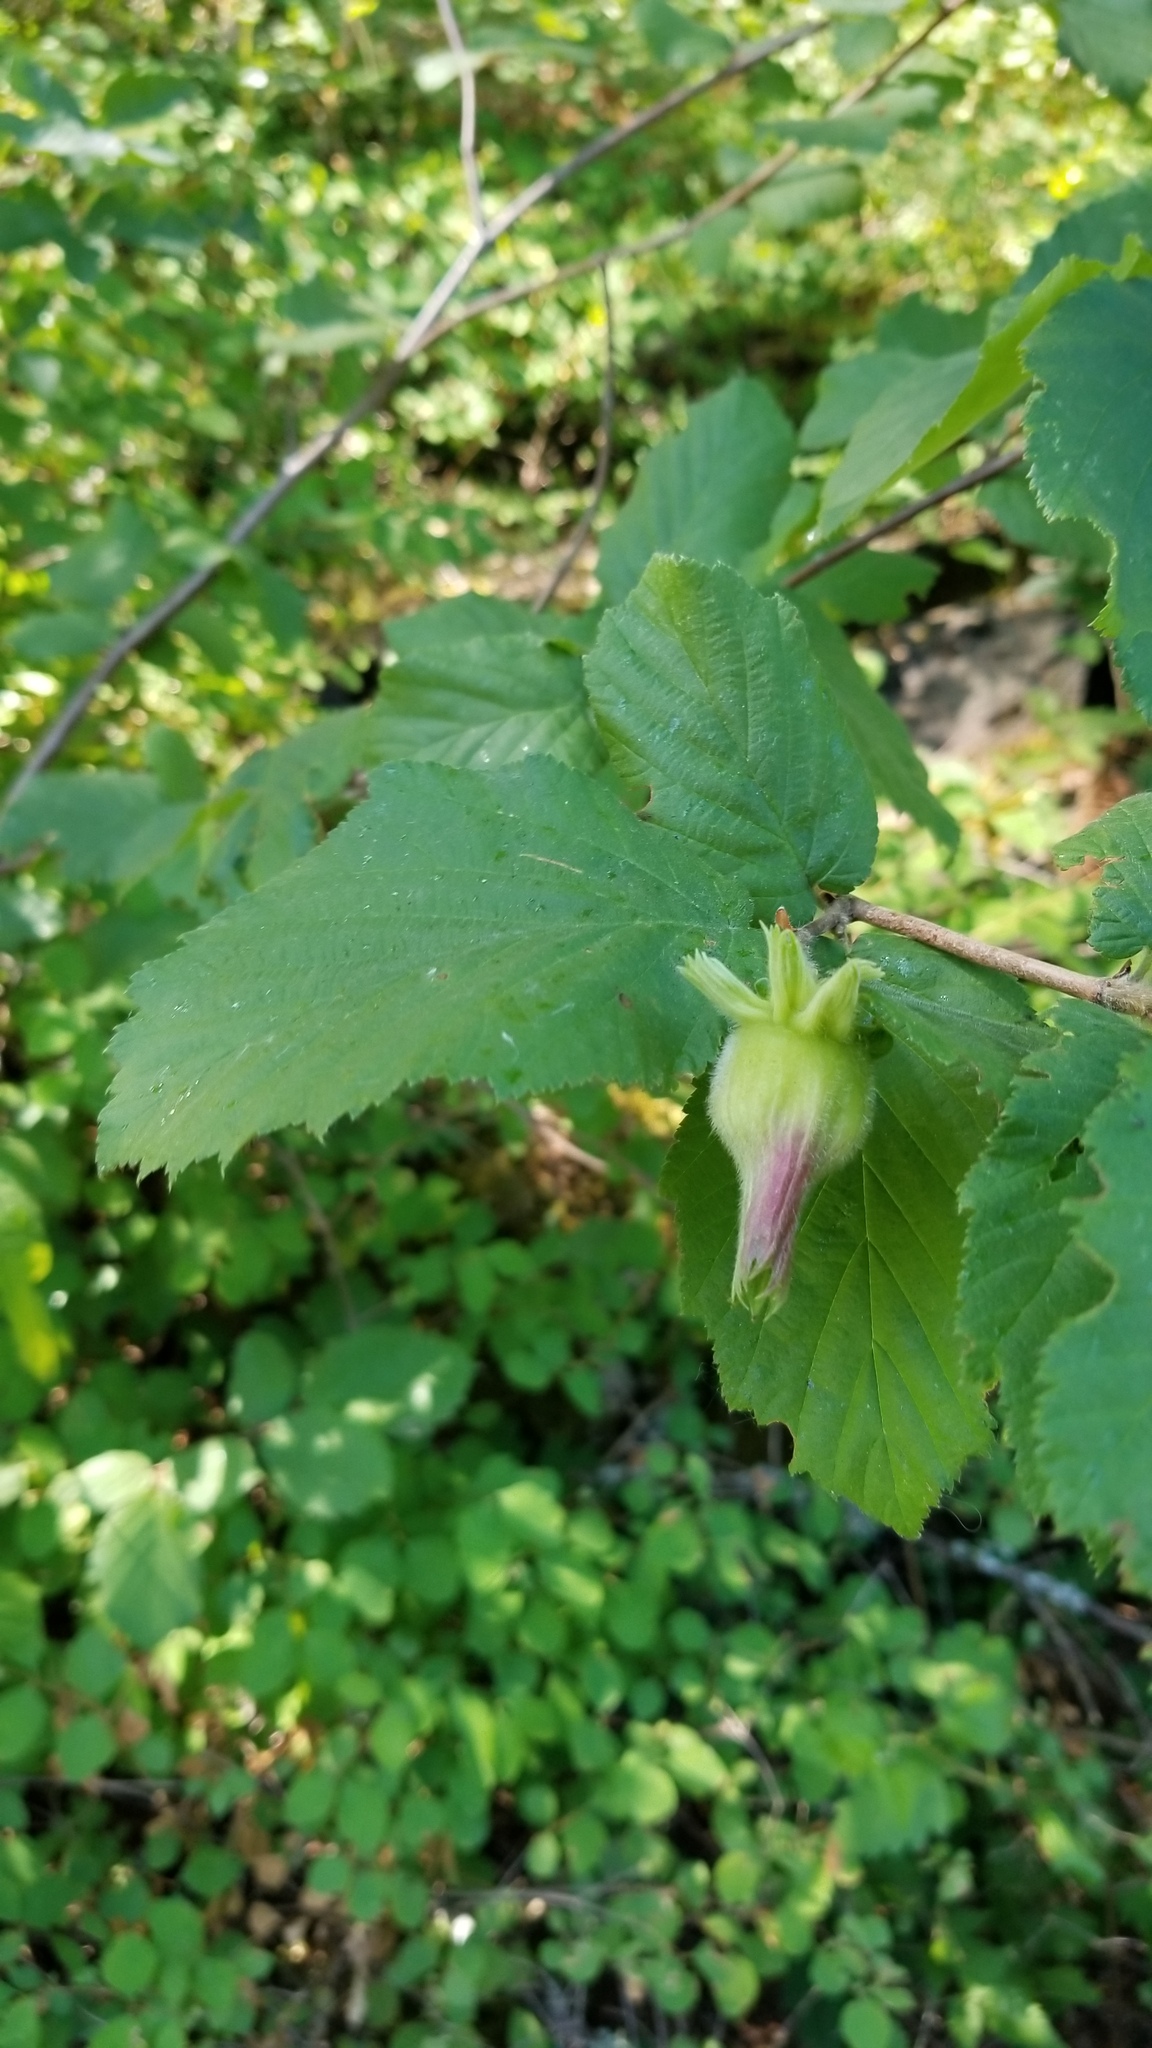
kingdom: Plantae
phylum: Tracheophyta
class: Magnoliopsida
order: Fagales
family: Betulaceae
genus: Corylus
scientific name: Corylus cornuta
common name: Beaked hazel
